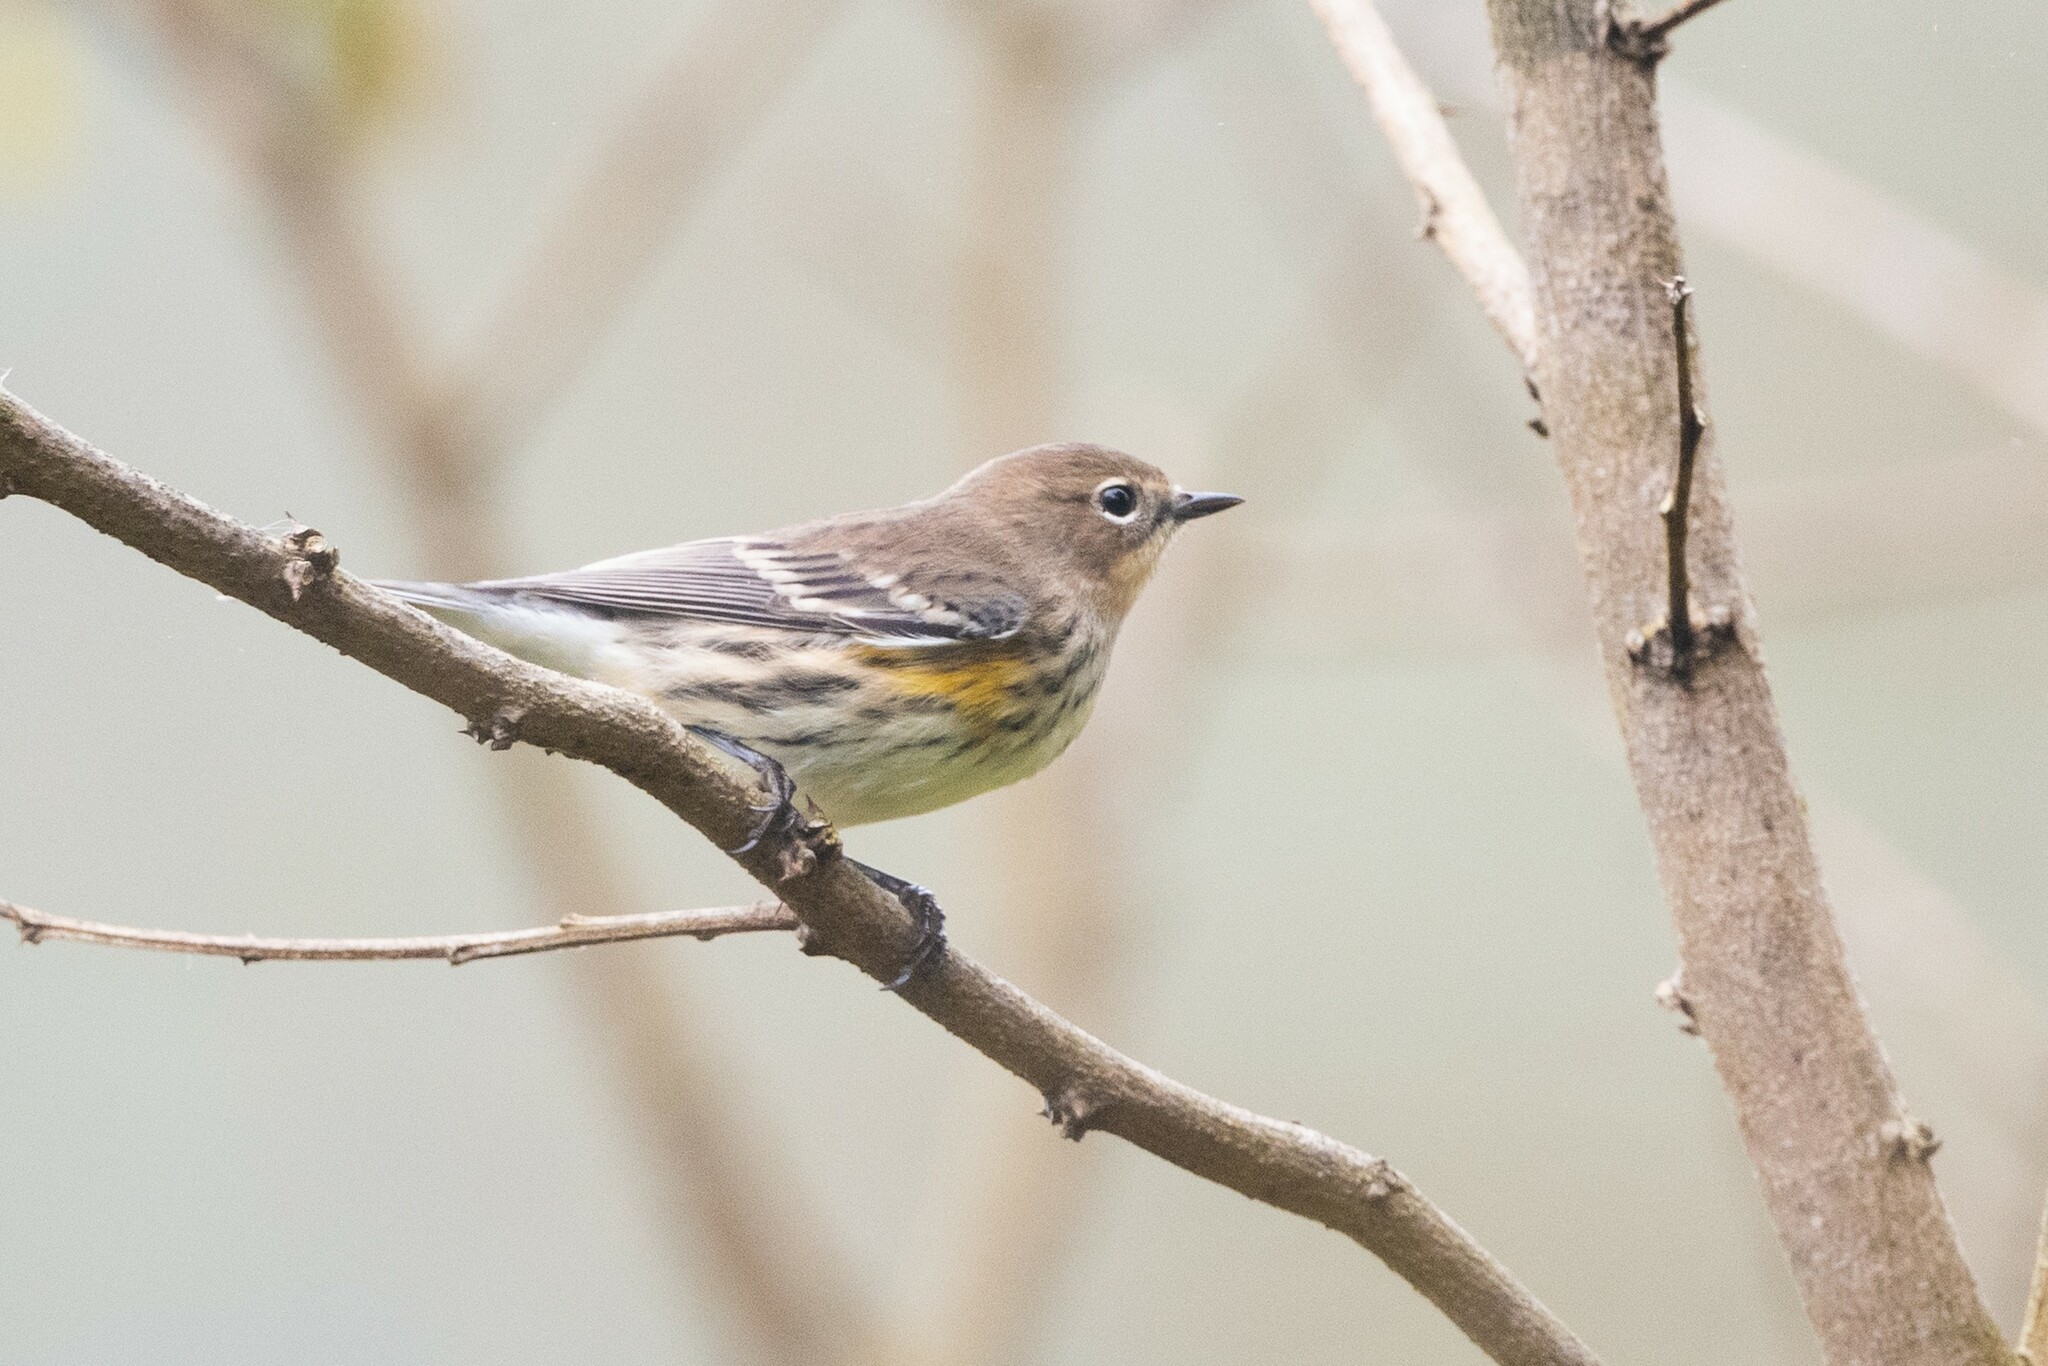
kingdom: Animalia
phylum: Chordata
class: Aves
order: Passeriformes
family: Parulidae
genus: Setophaga
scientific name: Setophaga coronata
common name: Myrtle warbler
